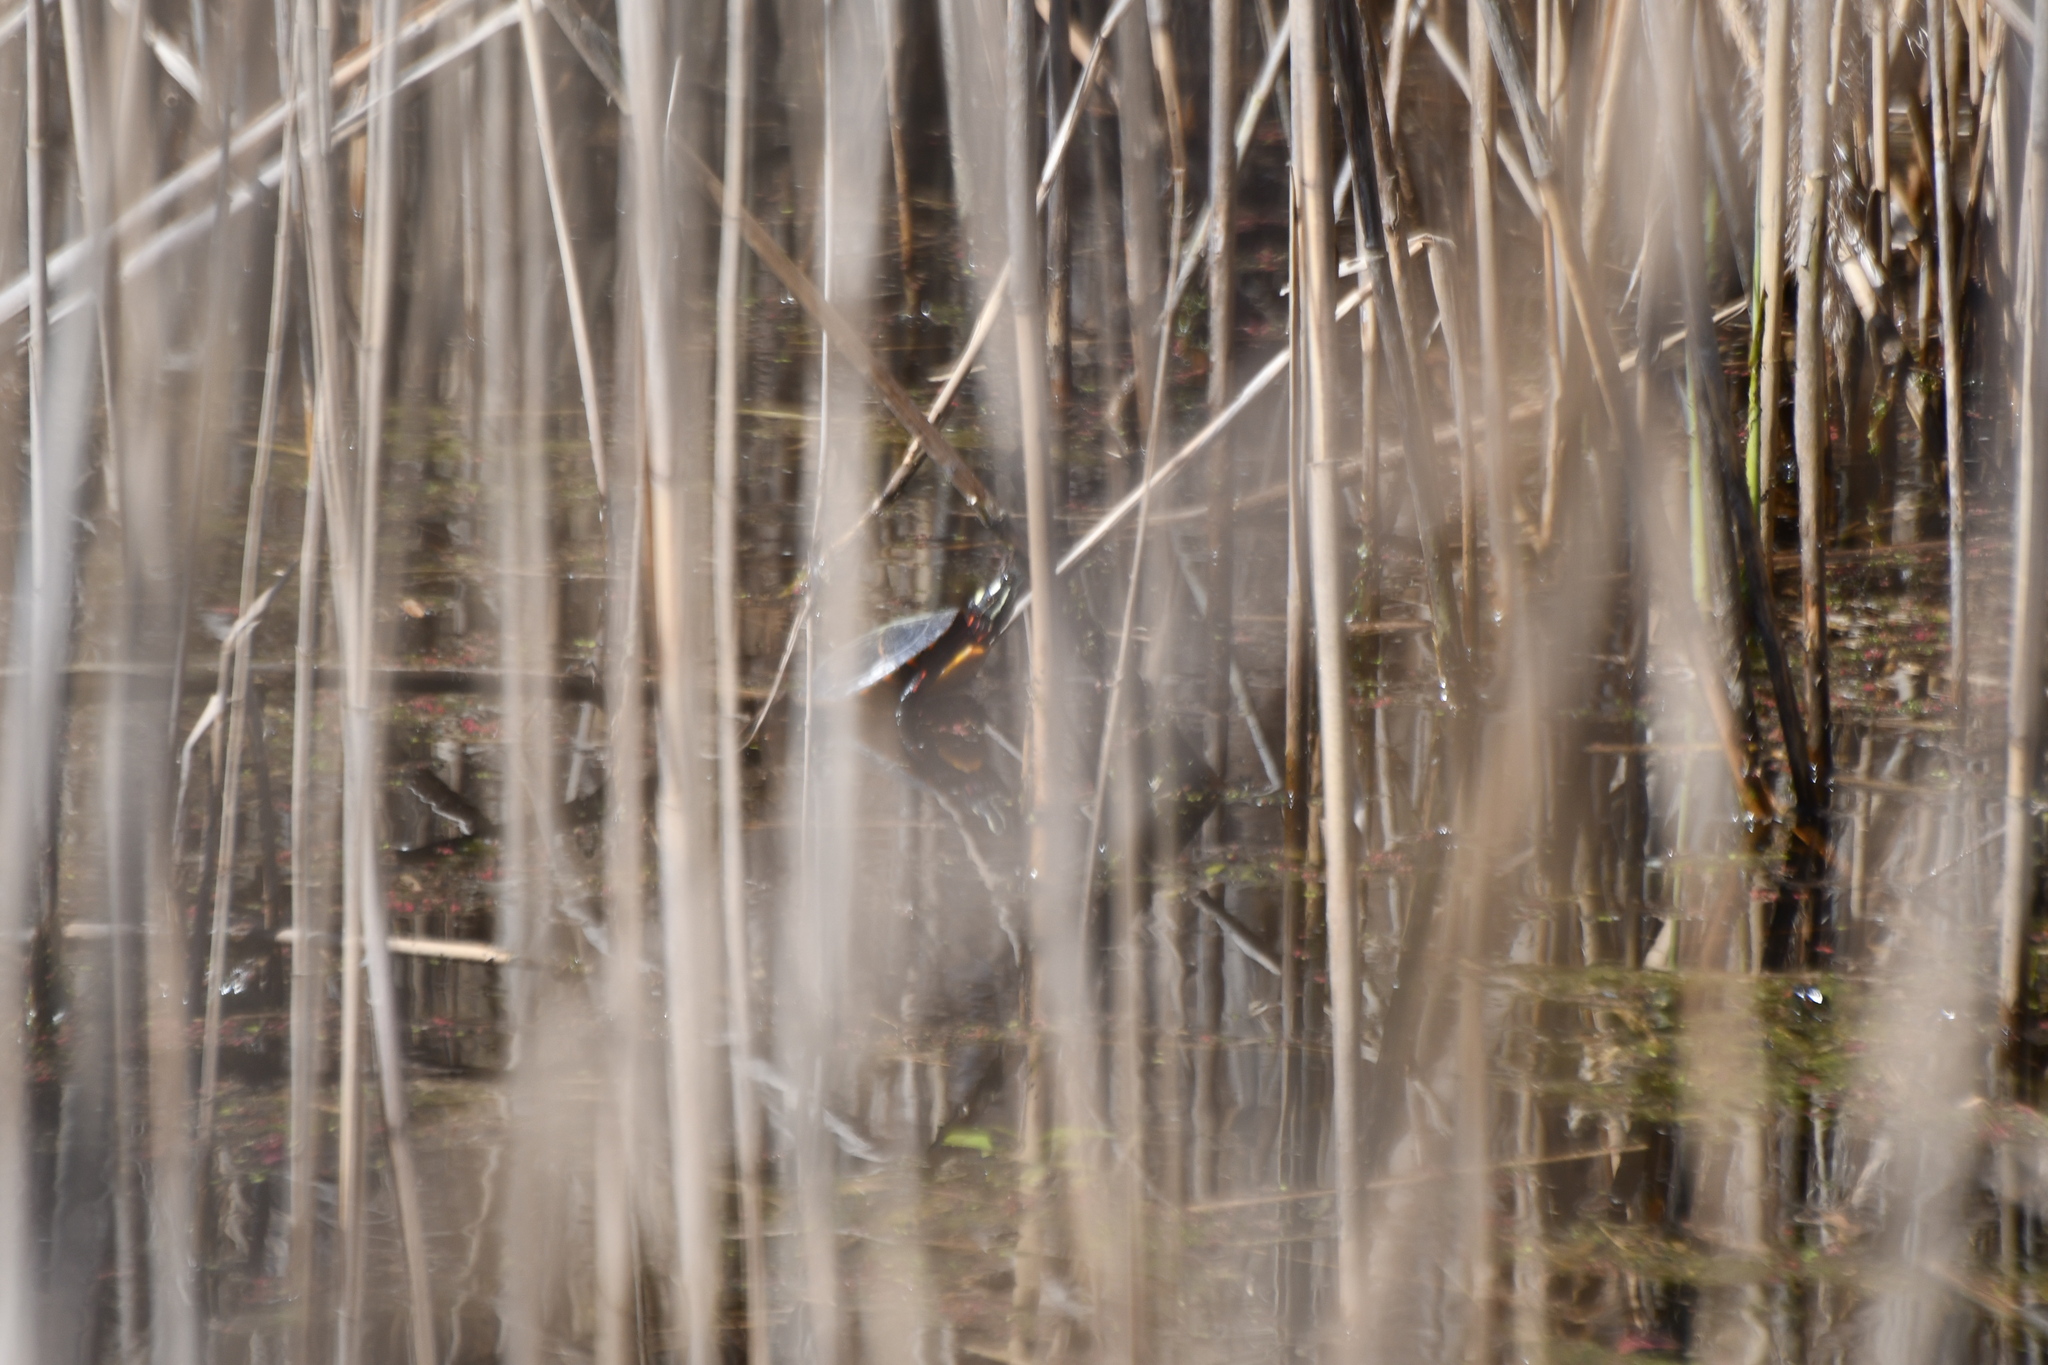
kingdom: Animalia
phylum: Chordata
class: Testudines
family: Emydidae
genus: Chrysemys
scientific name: Chrysemys picta
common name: Painted turtle
